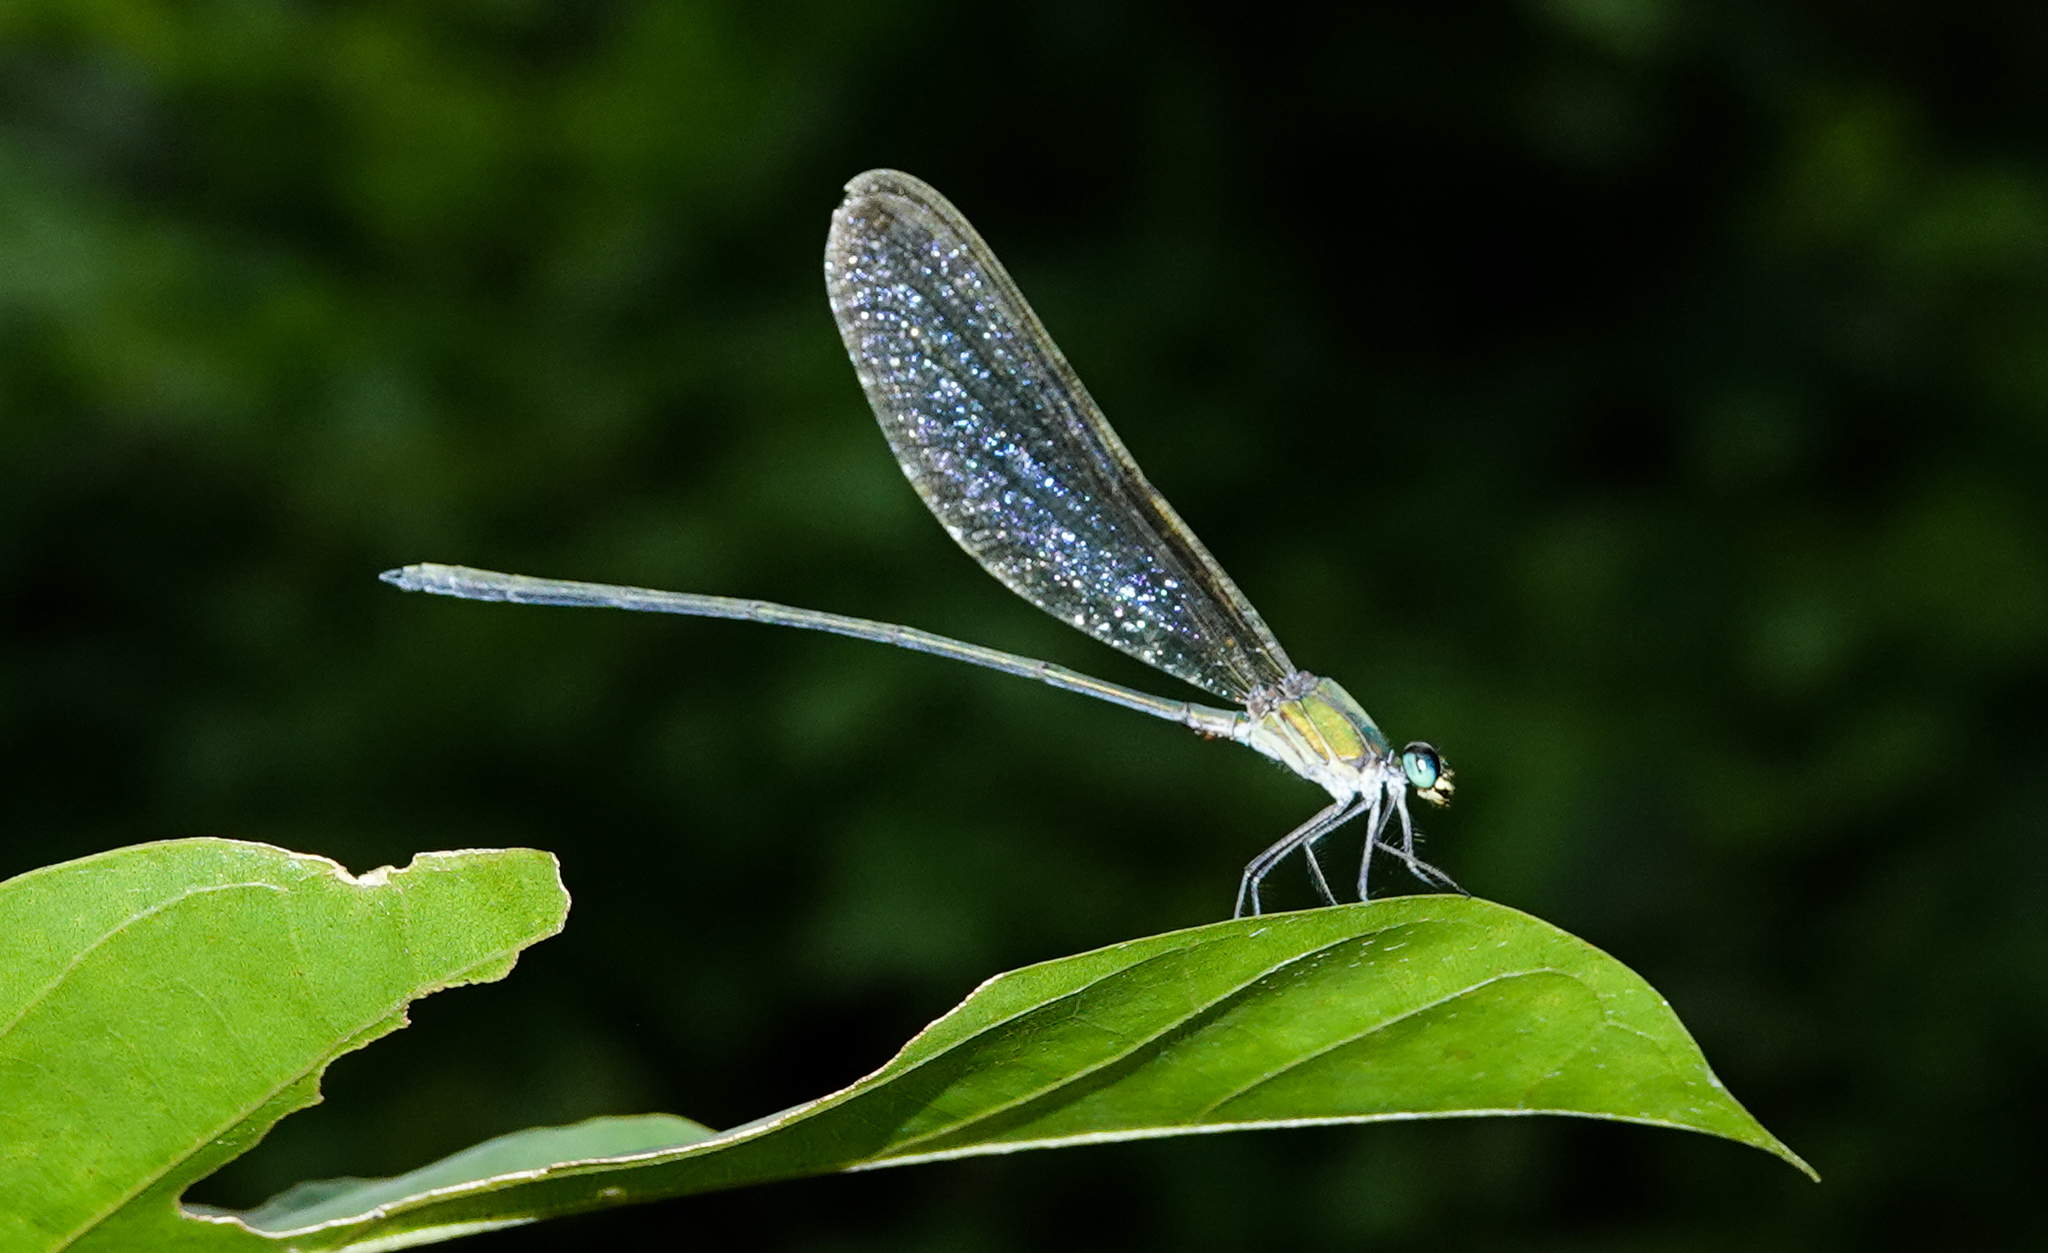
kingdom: Animalia
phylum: Arthropoda
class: Insecta
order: Odonata
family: Calopterygidae
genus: Vestalis
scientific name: Vestalis gracilis
